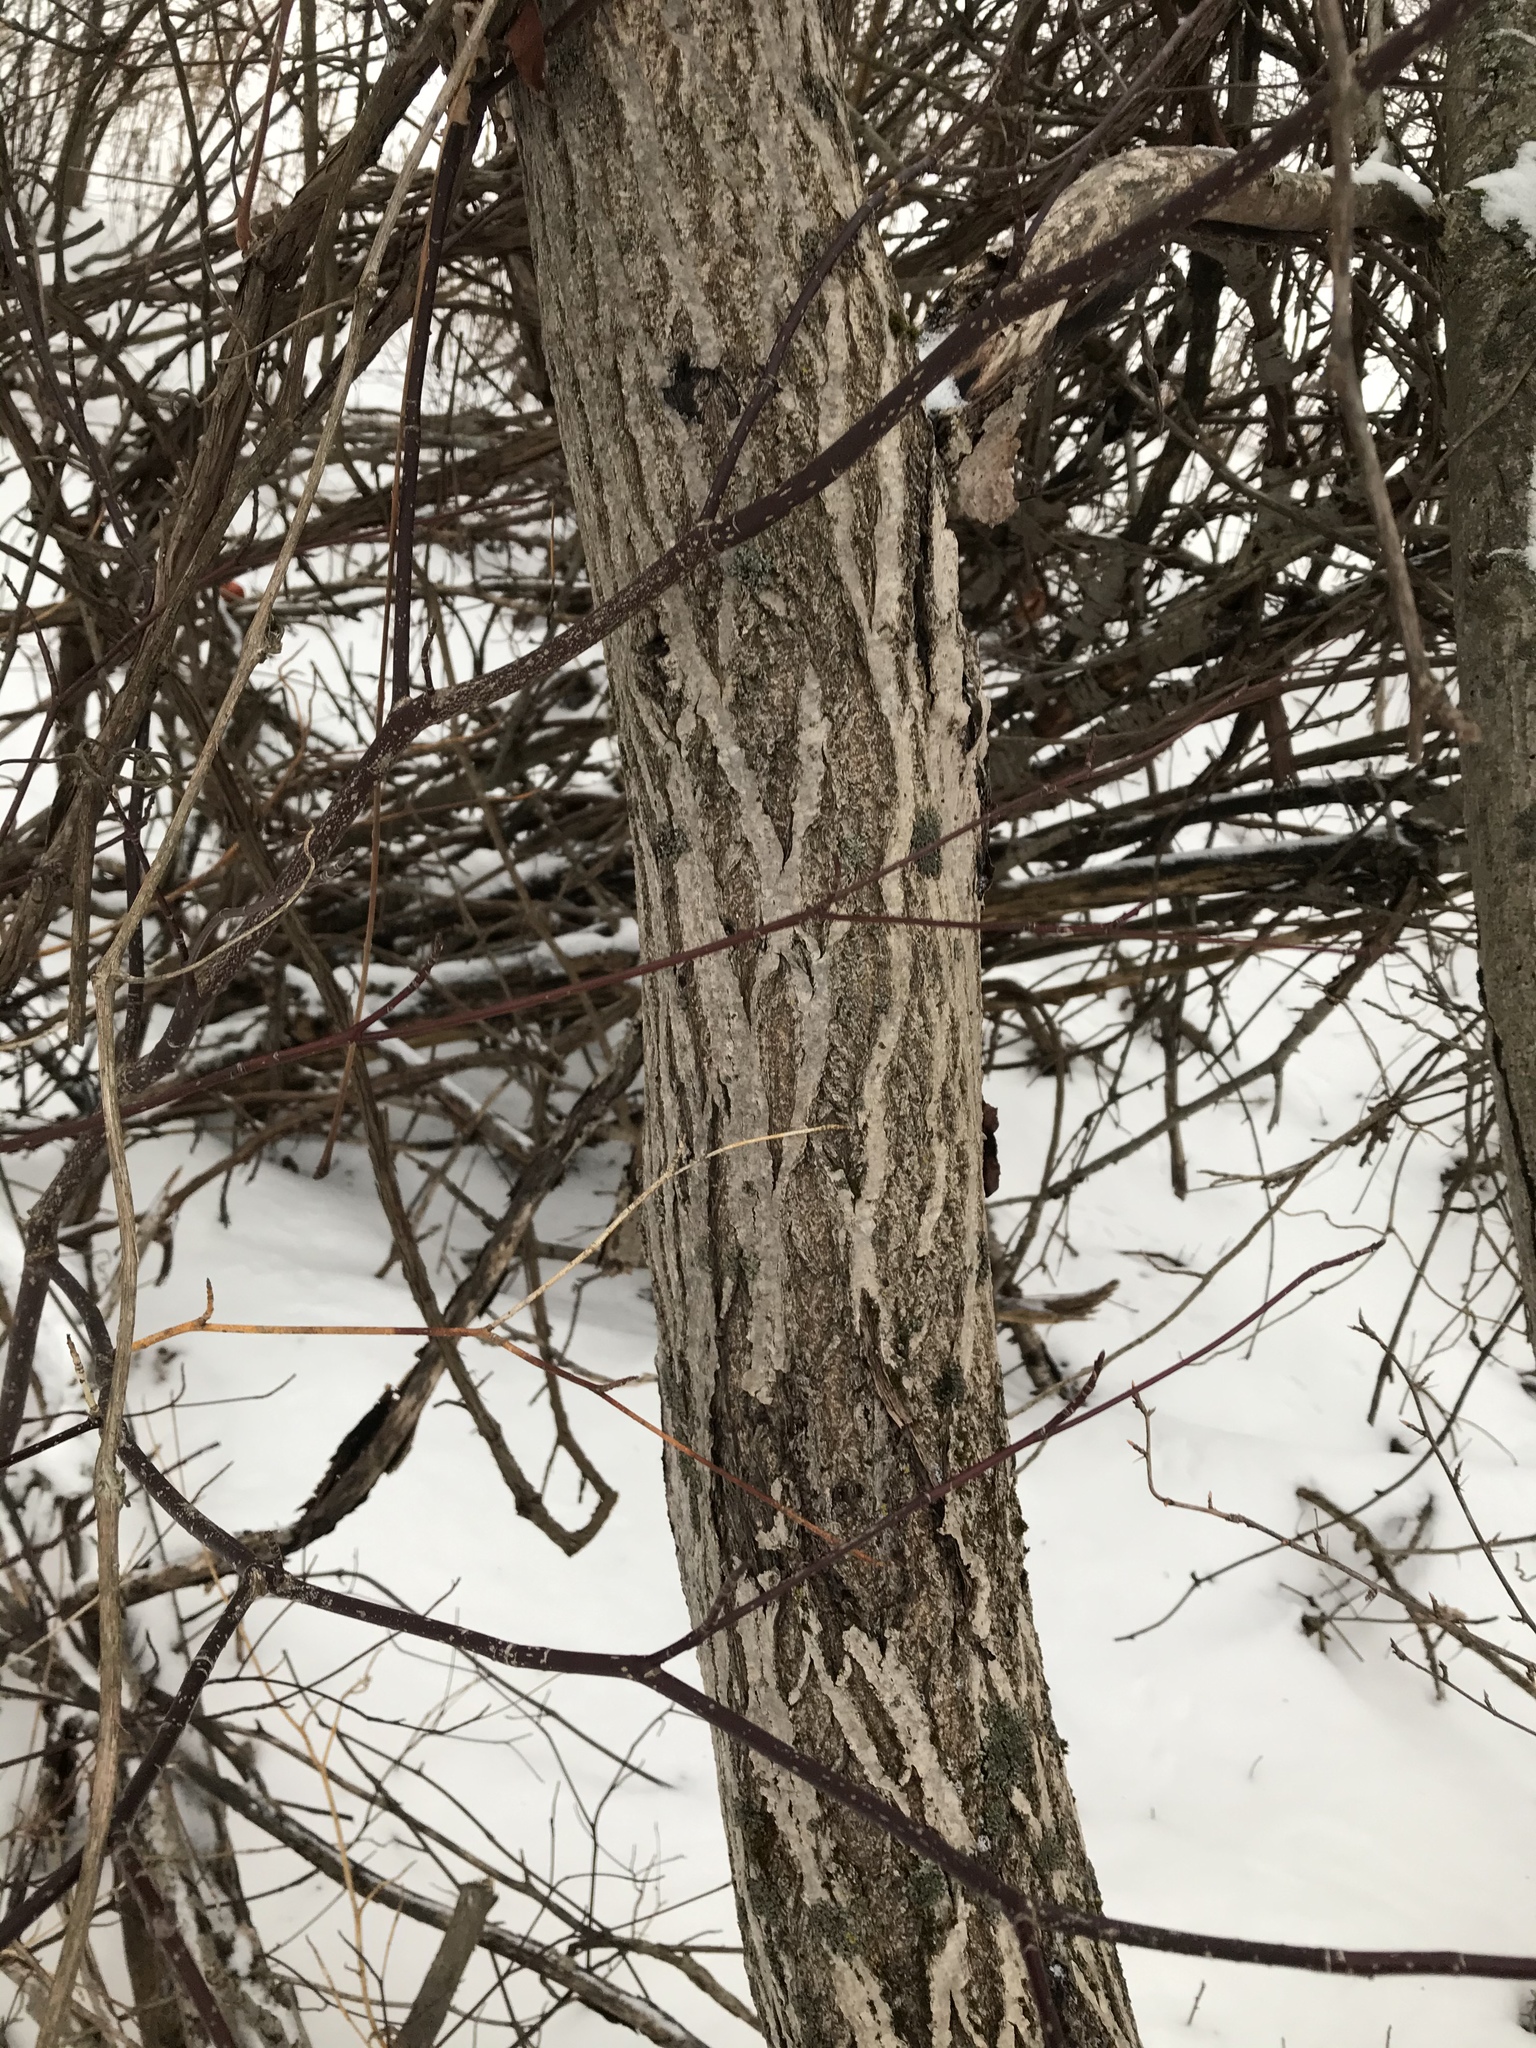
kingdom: Plantae
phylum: Tracheophyta
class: Magnoliopsida
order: Fagales
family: Juglandaceae
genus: Juglans
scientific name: Juglans cinerea
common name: Butternut
